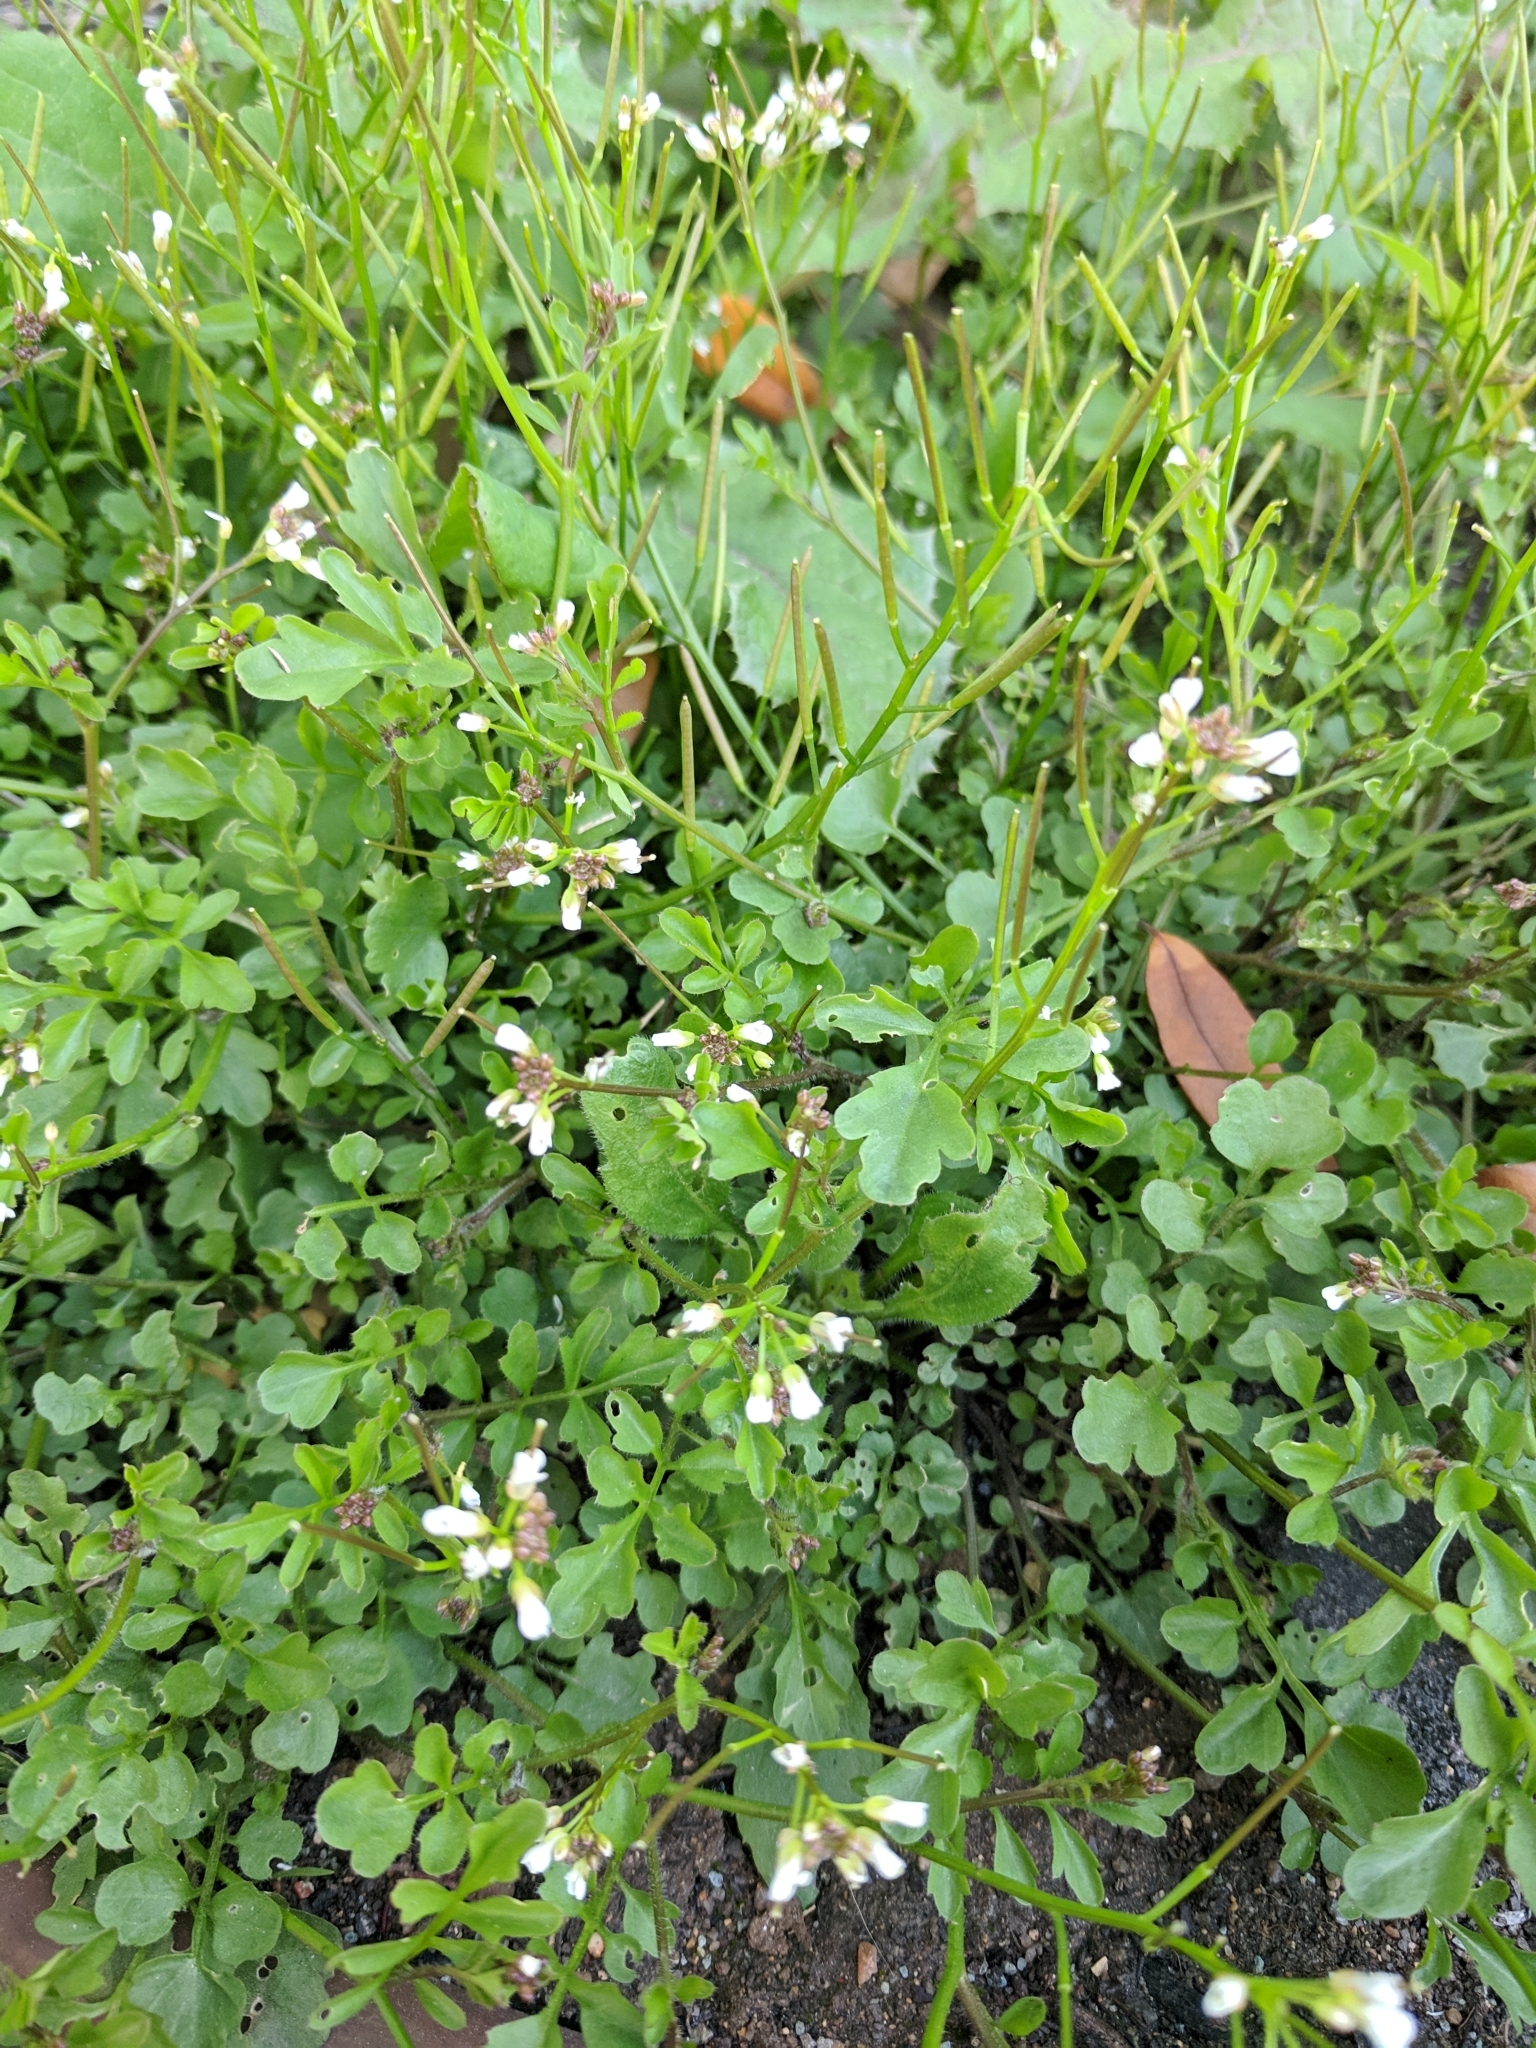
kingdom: Plantae
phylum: Tracheophyta
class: Magnoliopsida
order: Brassicales
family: Brassicaceae
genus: Cardamine
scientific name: Cardamine occulta
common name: Asian wavy bittercress
